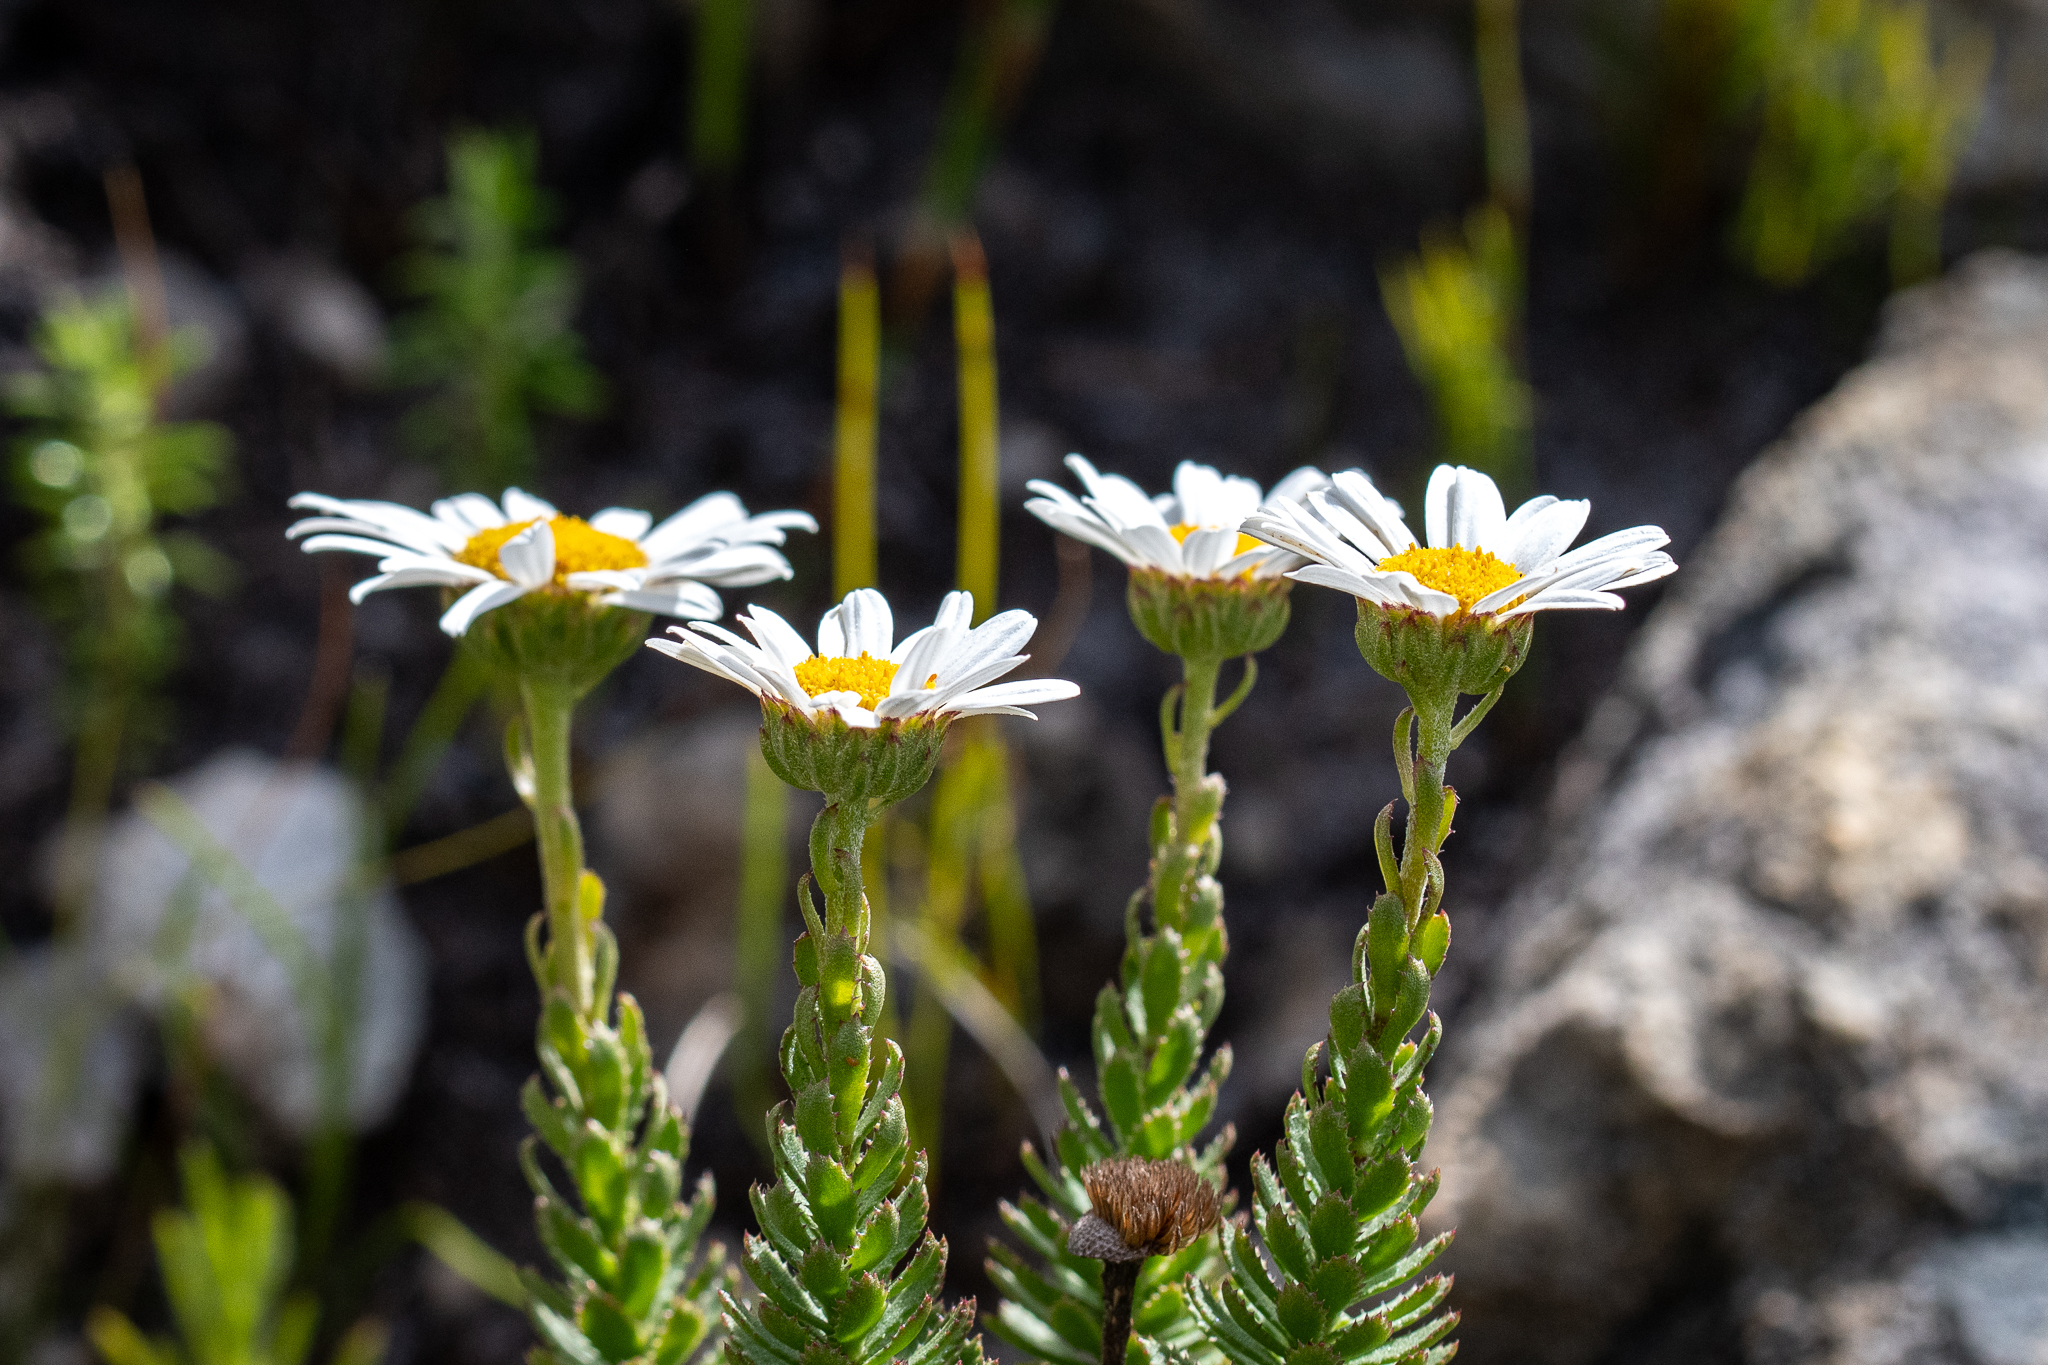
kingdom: Plantae
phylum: Tracheophyta
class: Magnoliopsida
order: Asterales
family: Asteraceae
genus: Osmitopsis
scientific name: Osmitopsis afra
